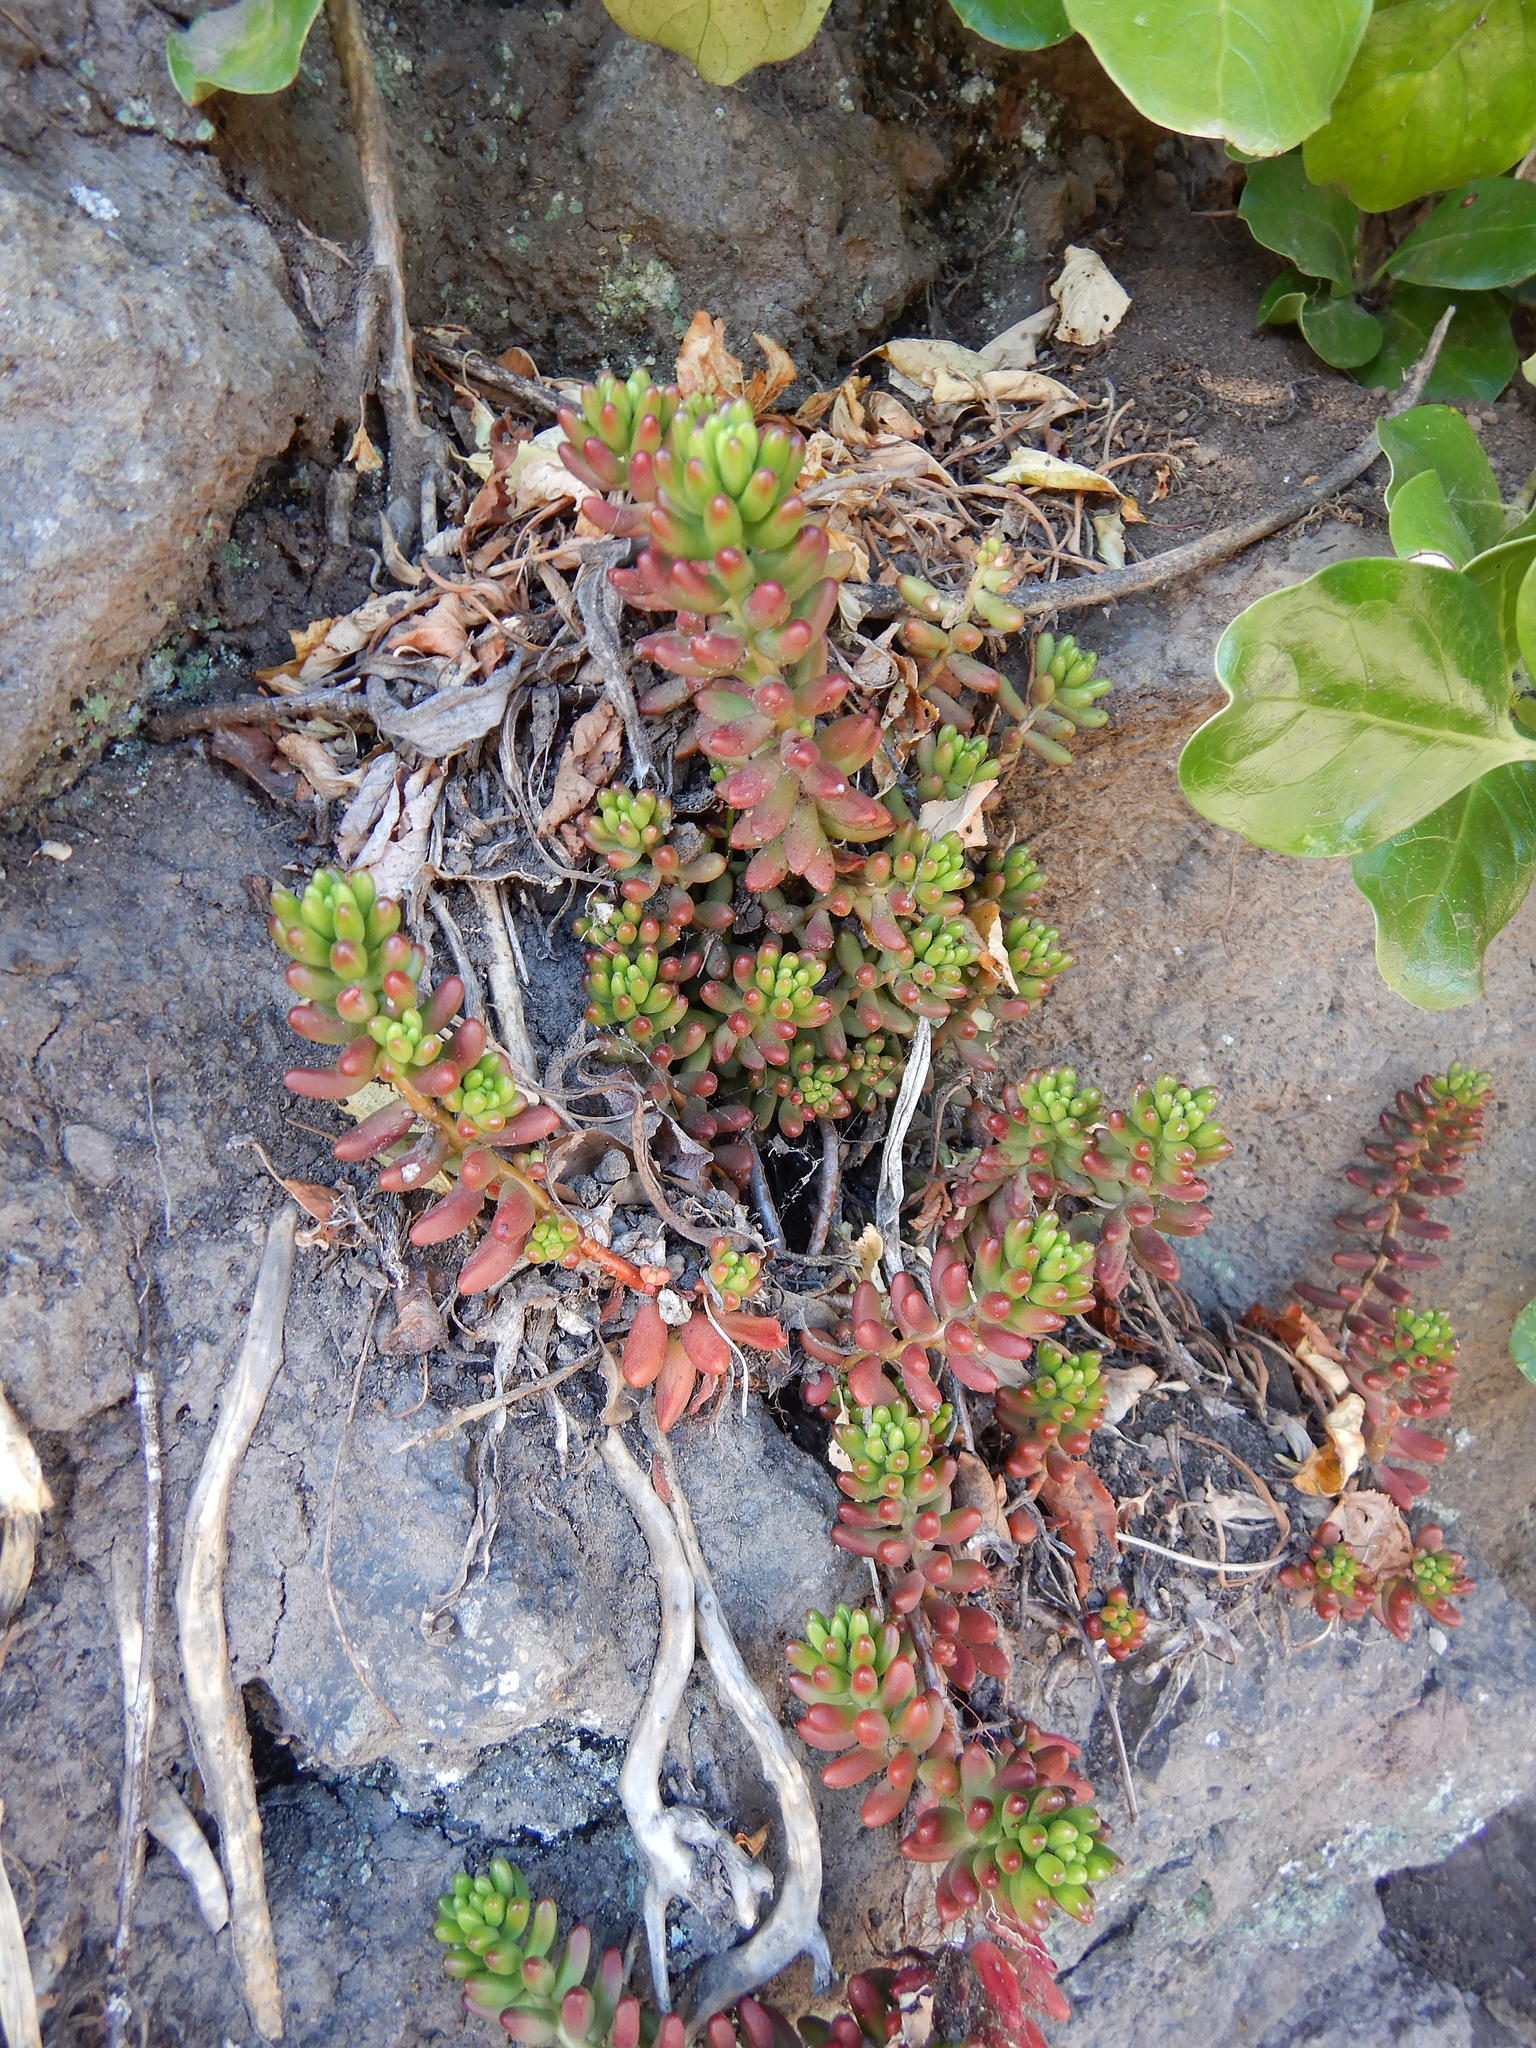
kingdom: Plantae
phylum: Tracheophyta
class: Magnoliopsida
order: Saxifragales
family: Crassulaceae
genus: Sedum
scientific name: Sedum rubrotinctum
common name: Christmas-cheer
